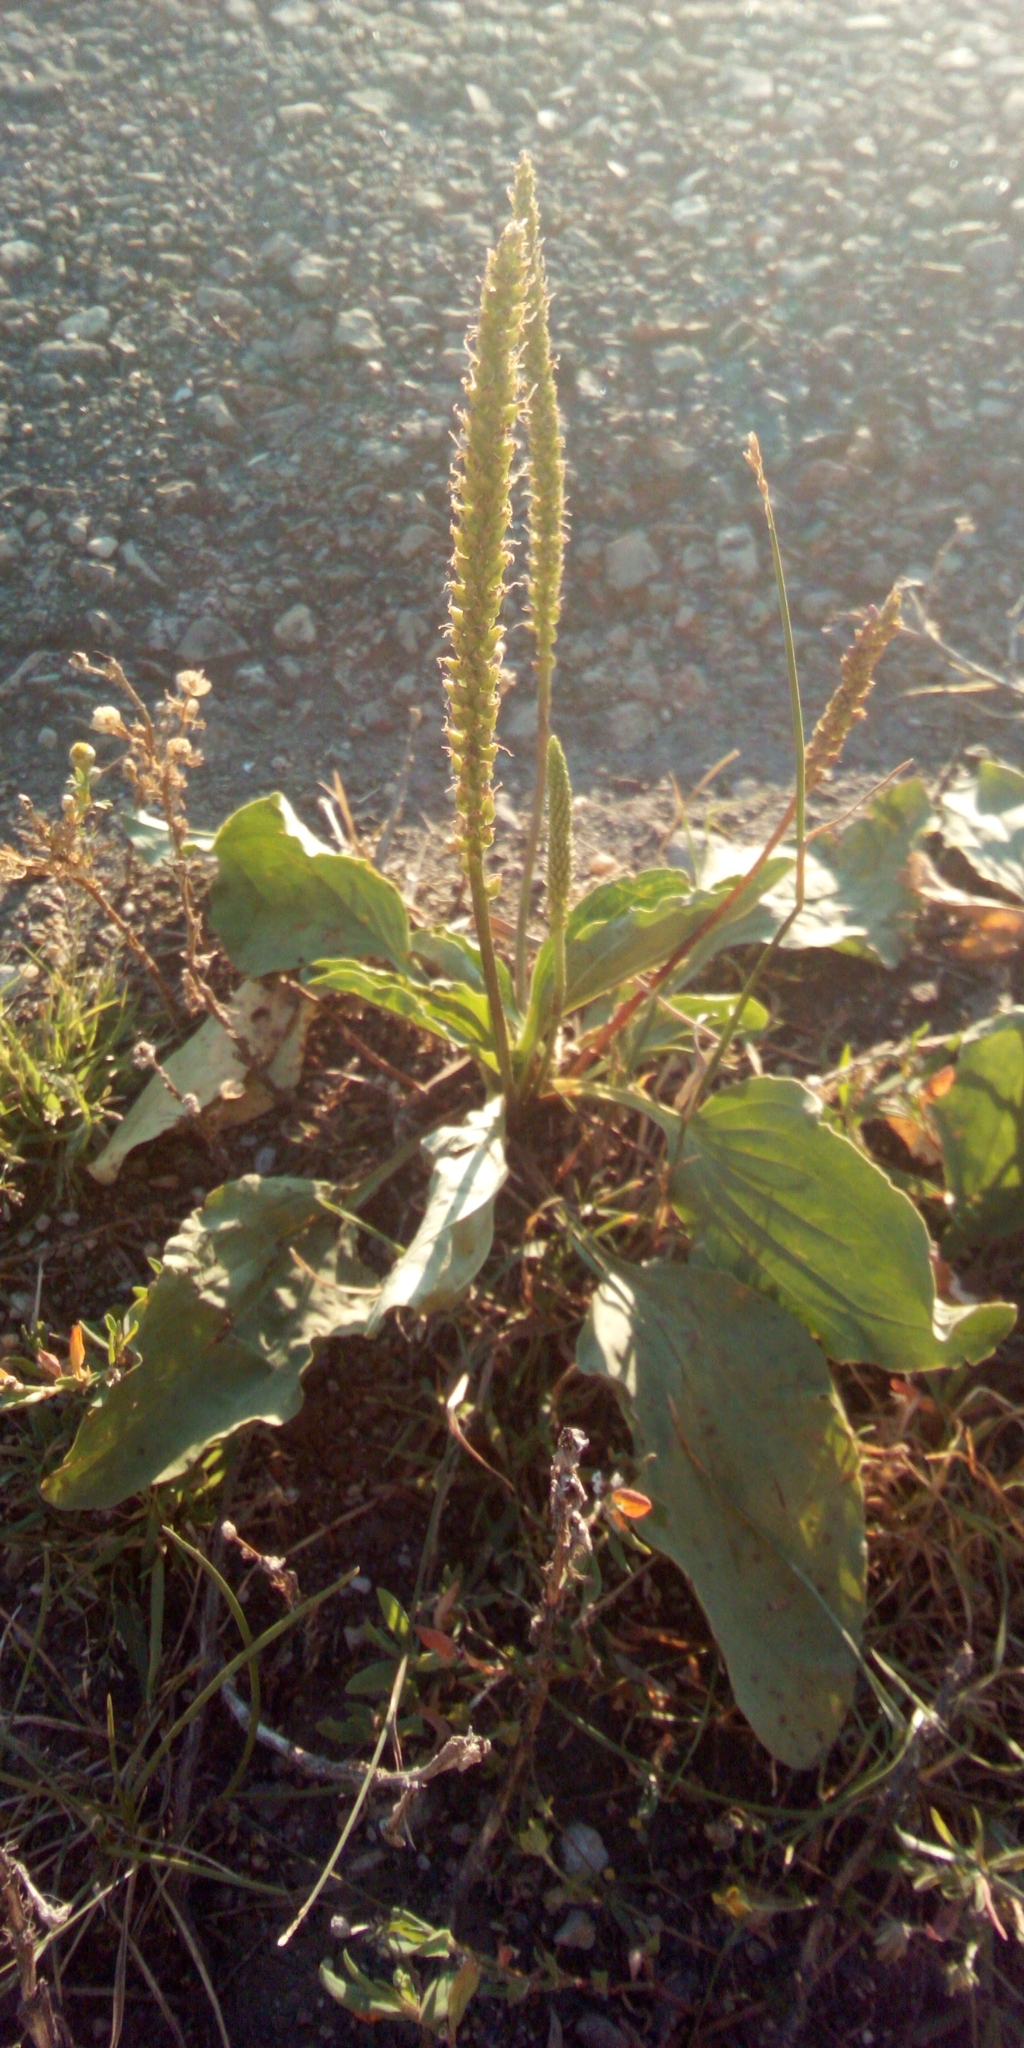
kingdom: Plantae
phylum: Tracheophyta
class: Magnoliopsida
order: Lamiales
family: Plantaginaceae
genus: Plantago
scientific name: Plantago major
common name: Common plantain
